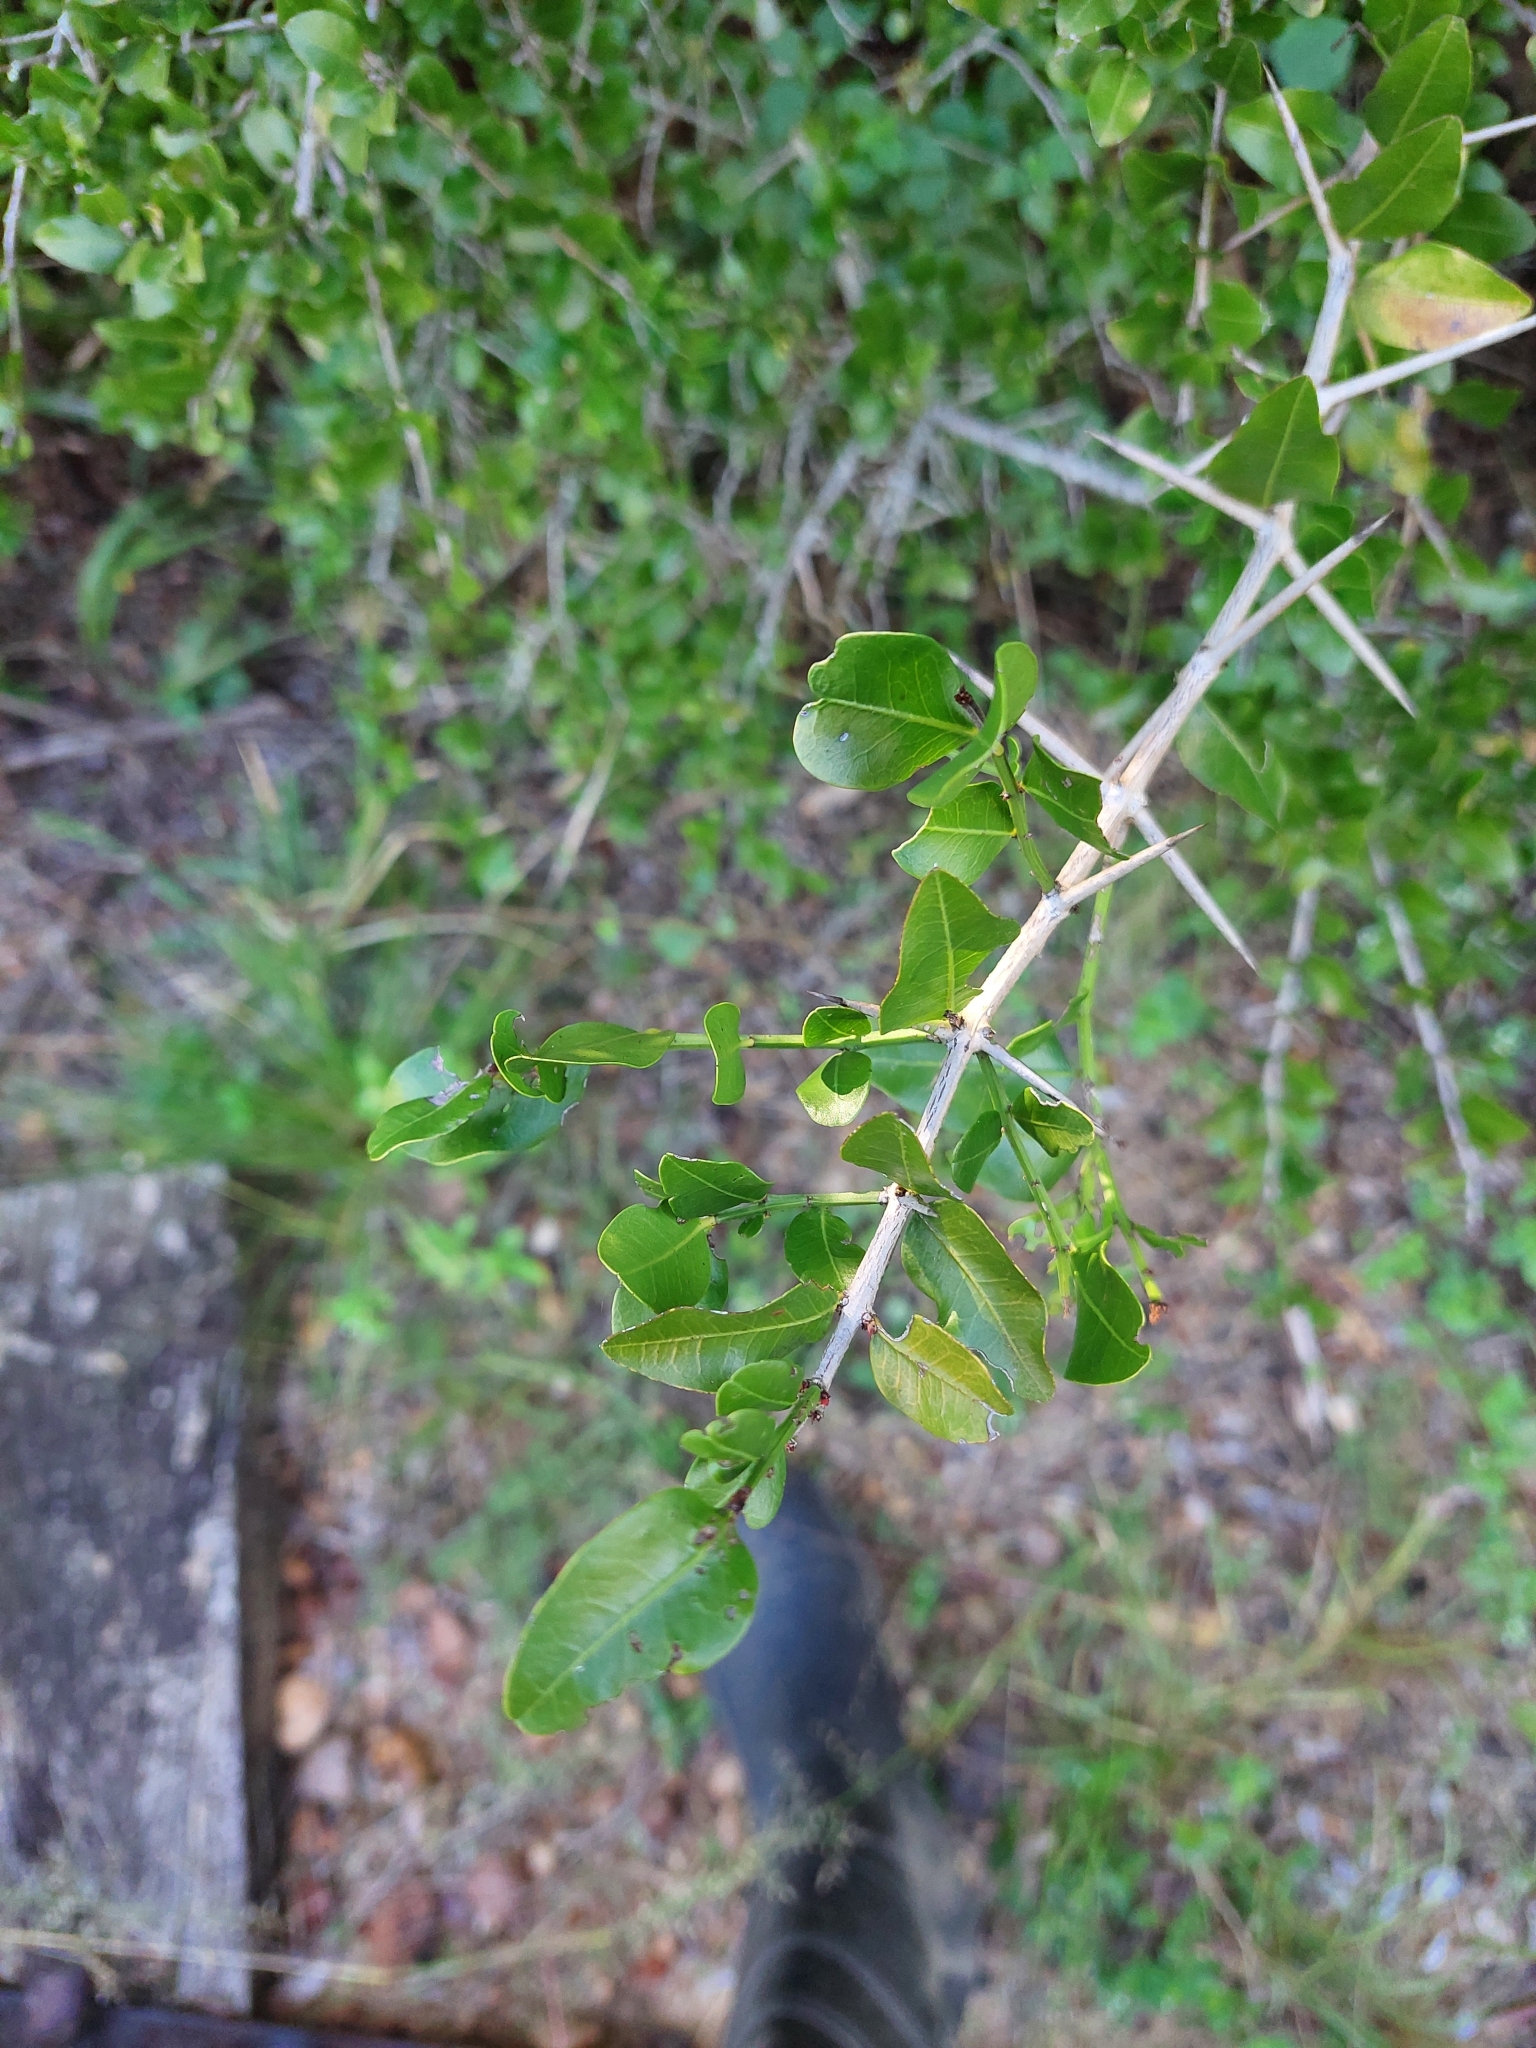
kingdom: Plantae
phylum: Tracheophyta
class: Magnoliopsida
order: Rosales
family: Rhamnaceae
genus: Scutia
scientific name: Scutia buxifolia
